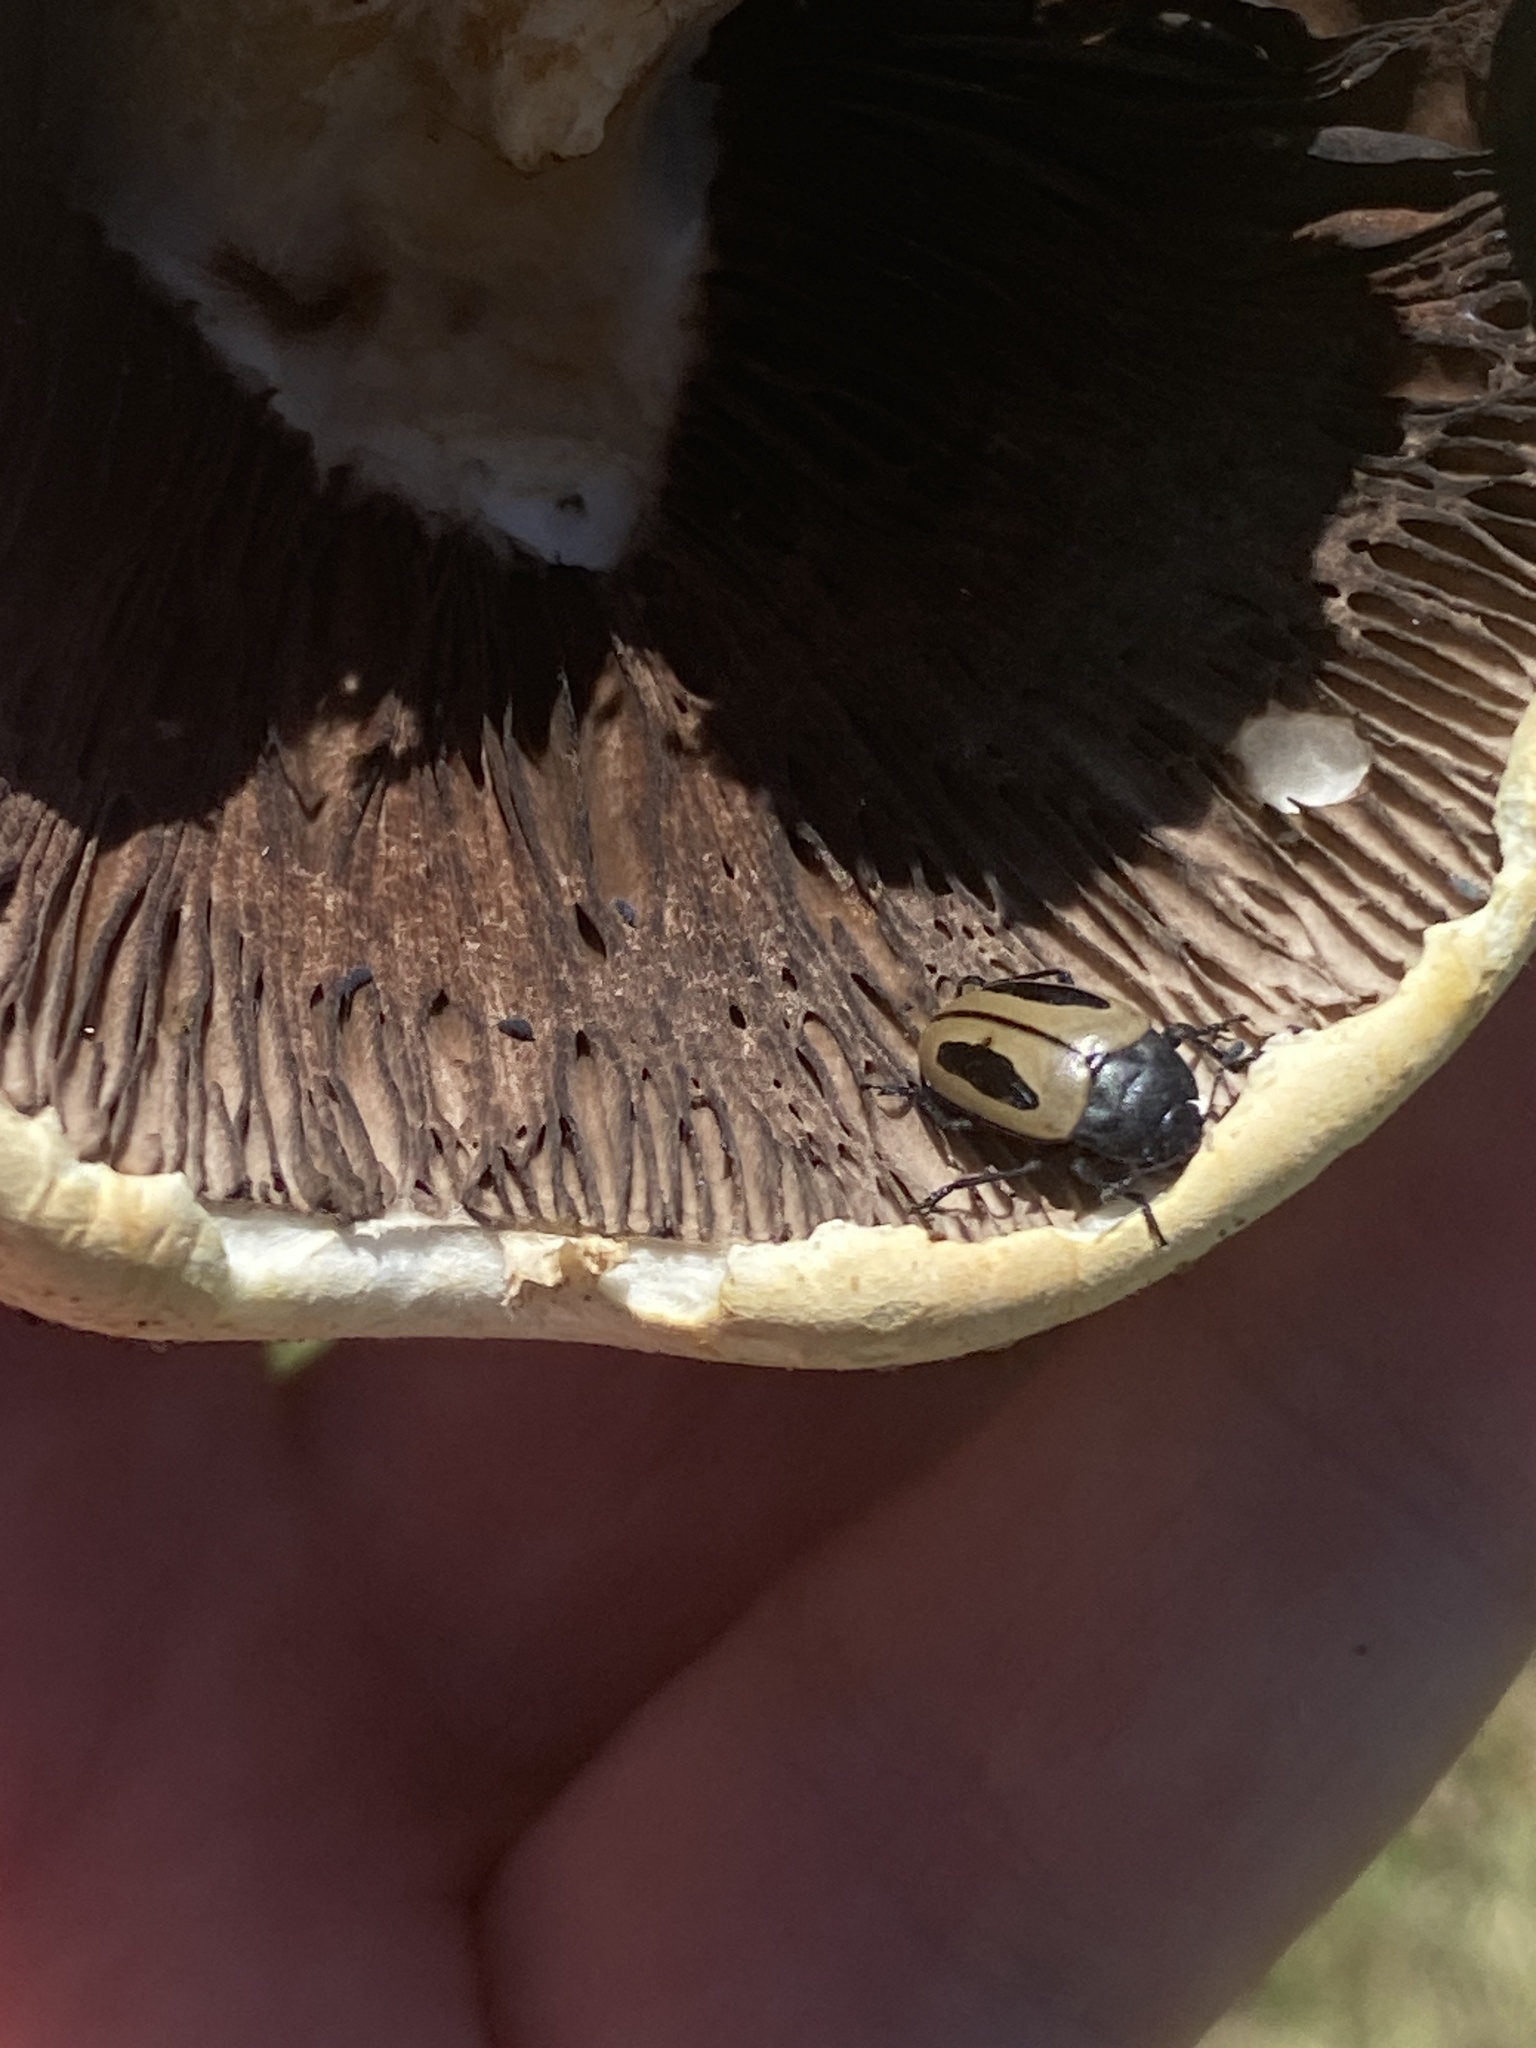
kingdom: Animalia
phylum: Arthropoda
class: Insecta
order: Coleoptera
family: Erotylidae
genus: Iphiclus
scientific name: Iphiclus
